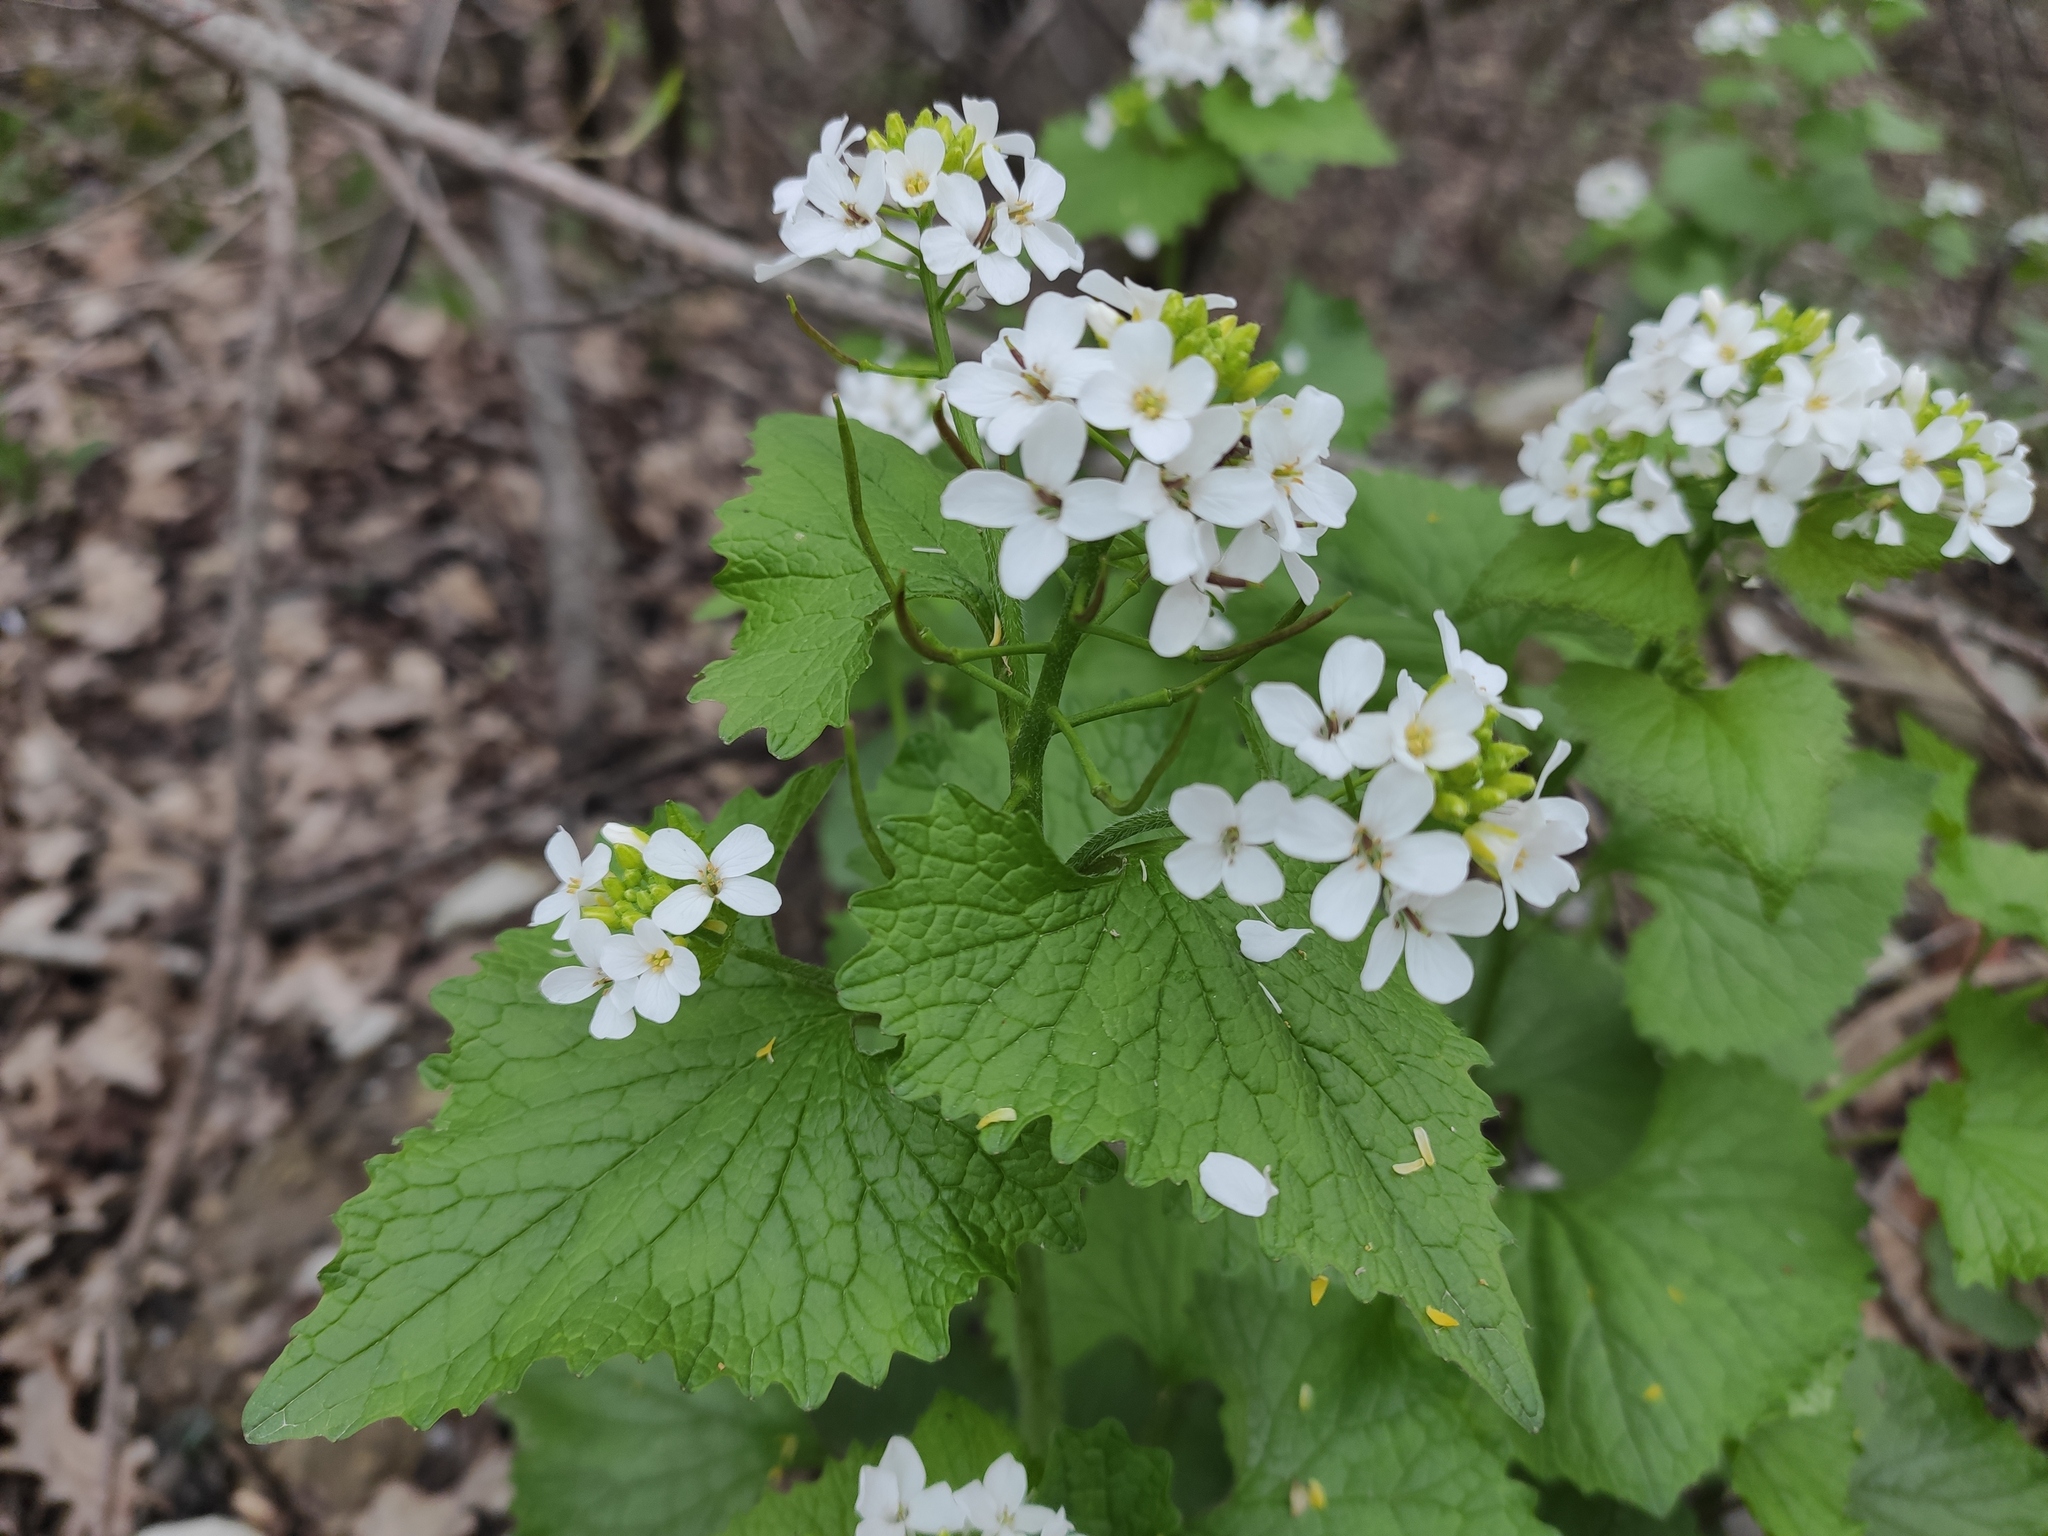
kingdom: Plantae
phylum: Tracheophyta
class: Magnoliopsida
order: Brassicales
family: Brassicaceae
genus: Alliaria
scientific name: Alliaria petiolata
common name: Garlic mustard
